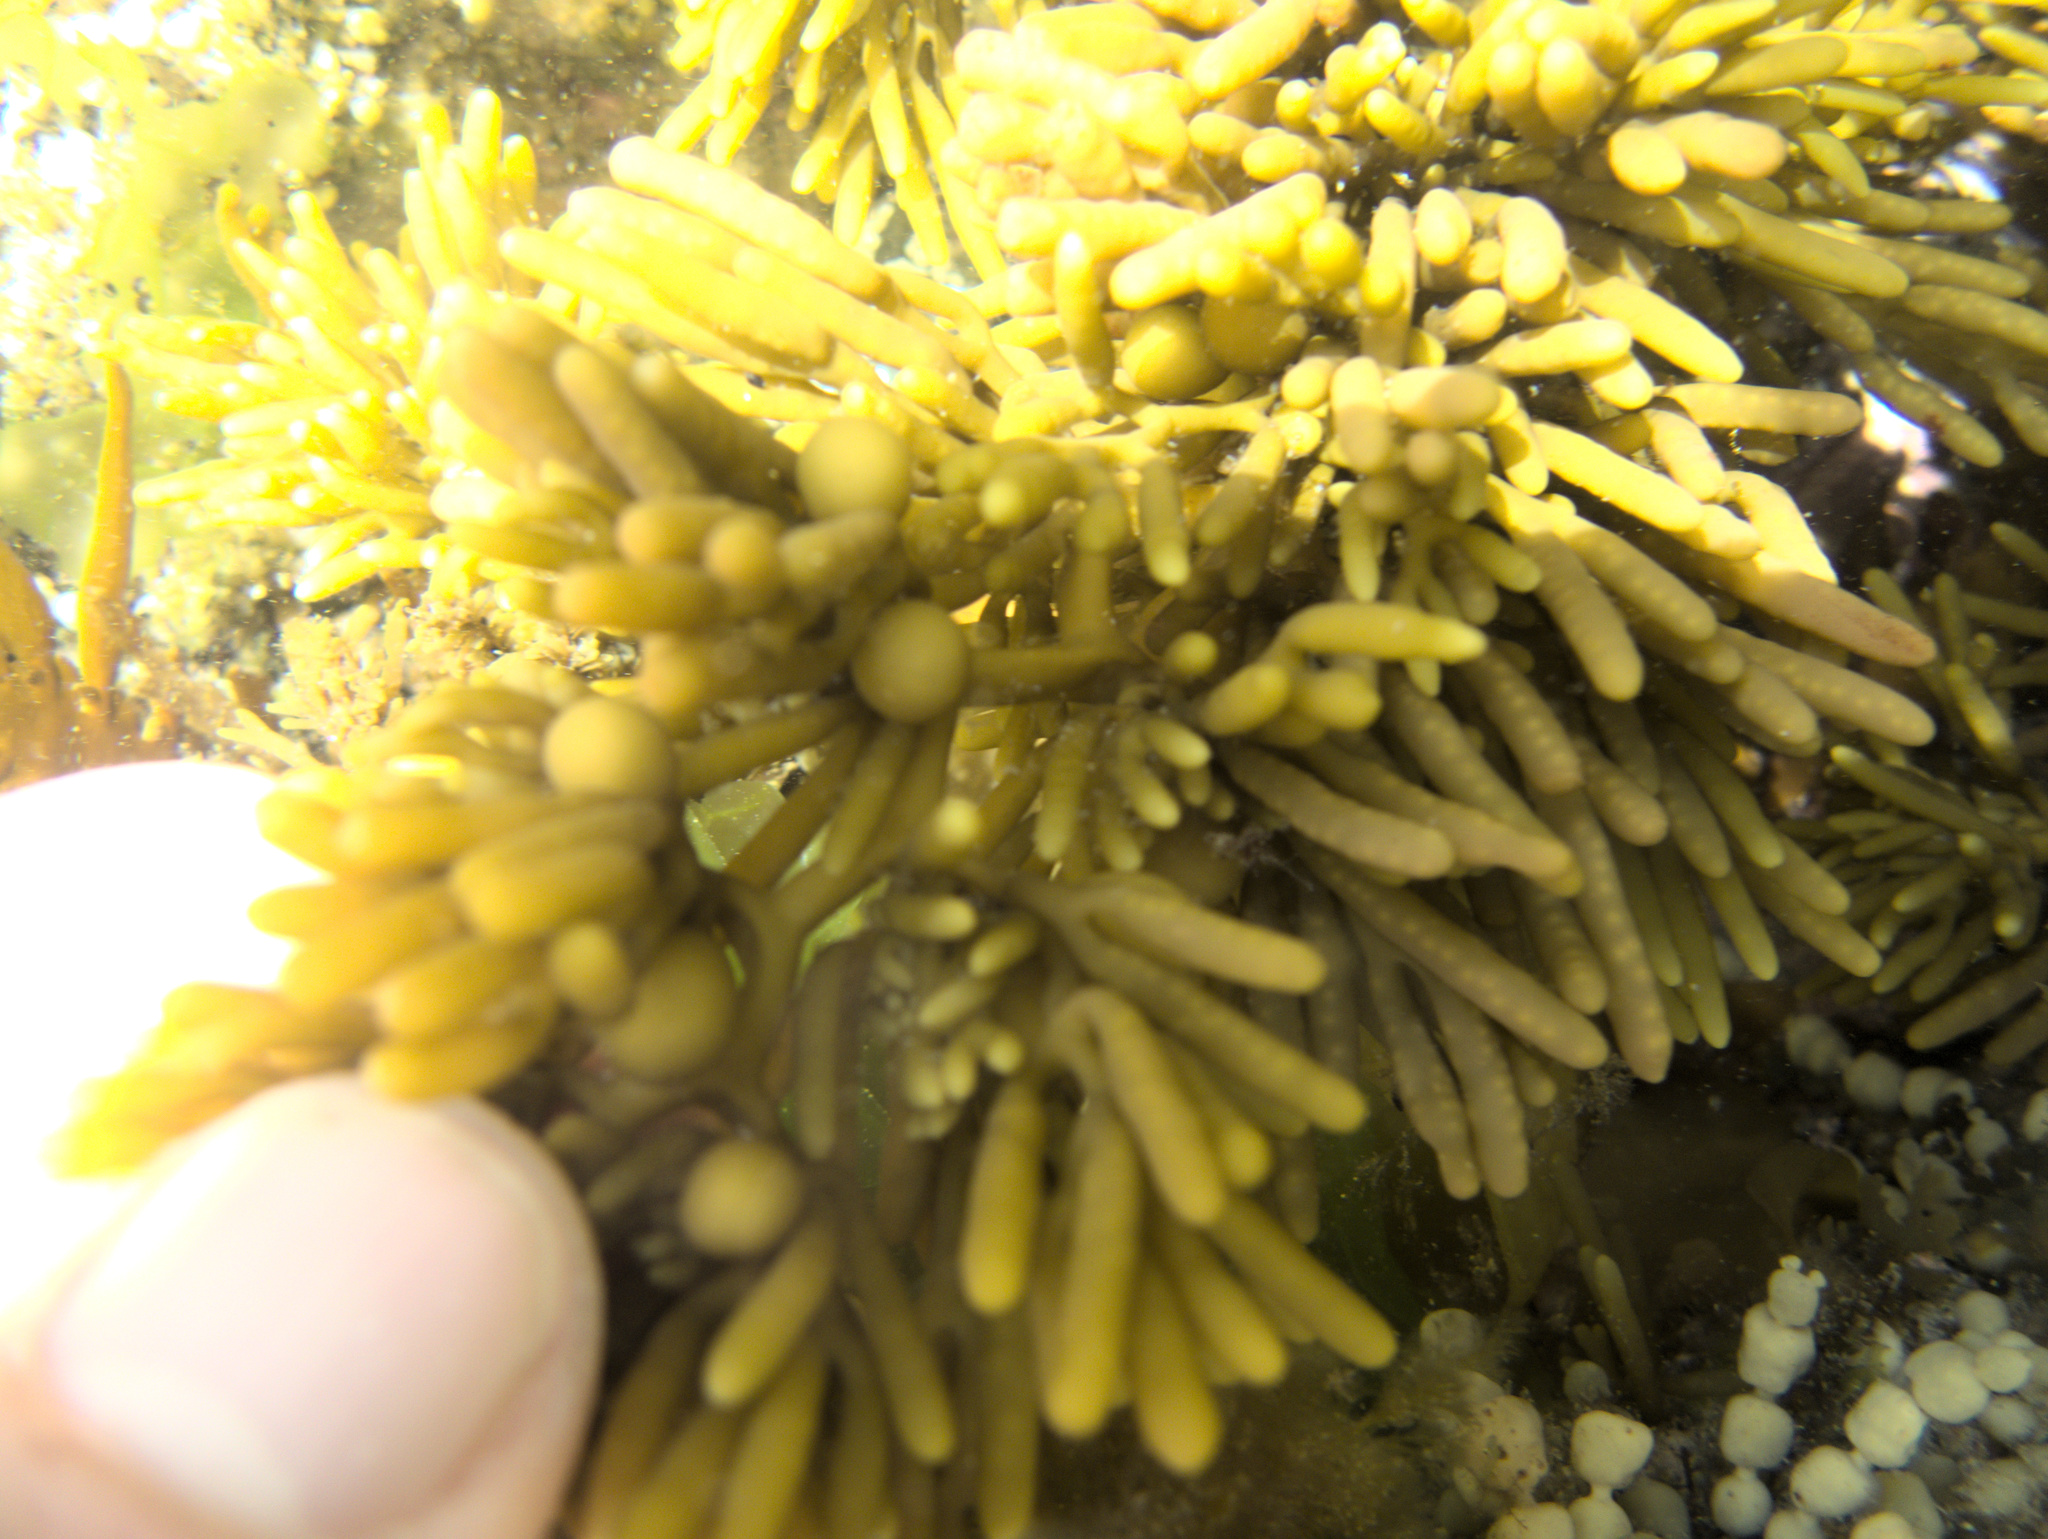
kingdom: Chromista
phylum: Ochrophyta
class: Phaeophyceae
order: Fucales
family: Sargassaceae
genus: Cystophora
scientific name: Cystophora torulosa
